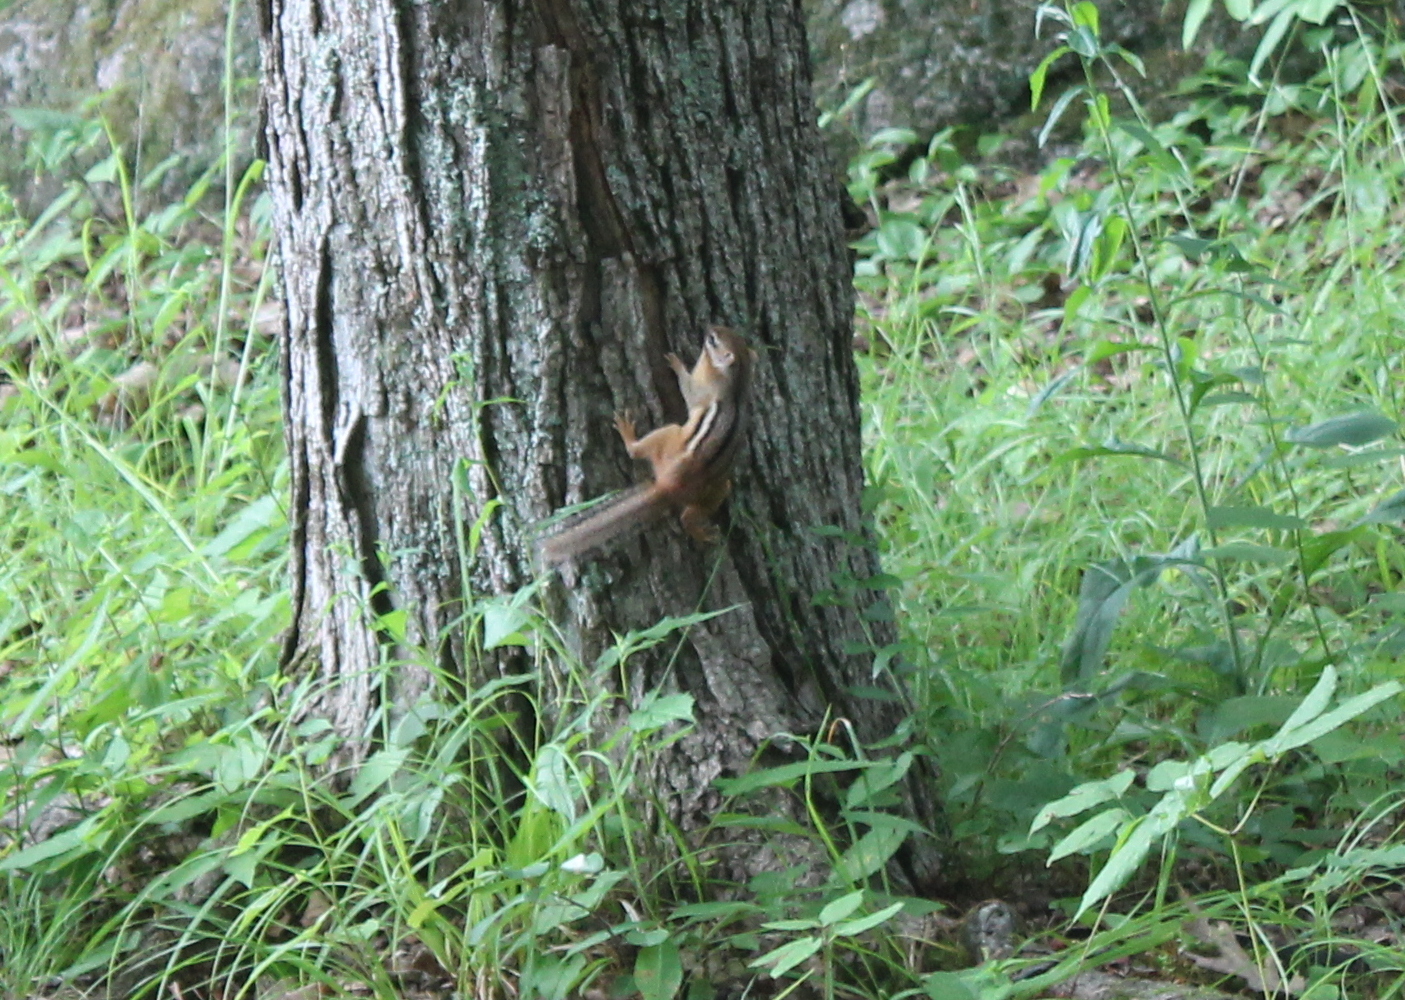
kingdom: Animalia
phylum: Chordata
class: Mammalia
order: Rodentia
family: Sciuridae
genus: Tamias
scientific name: Tamias striatus
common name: Eastern chipmunk
